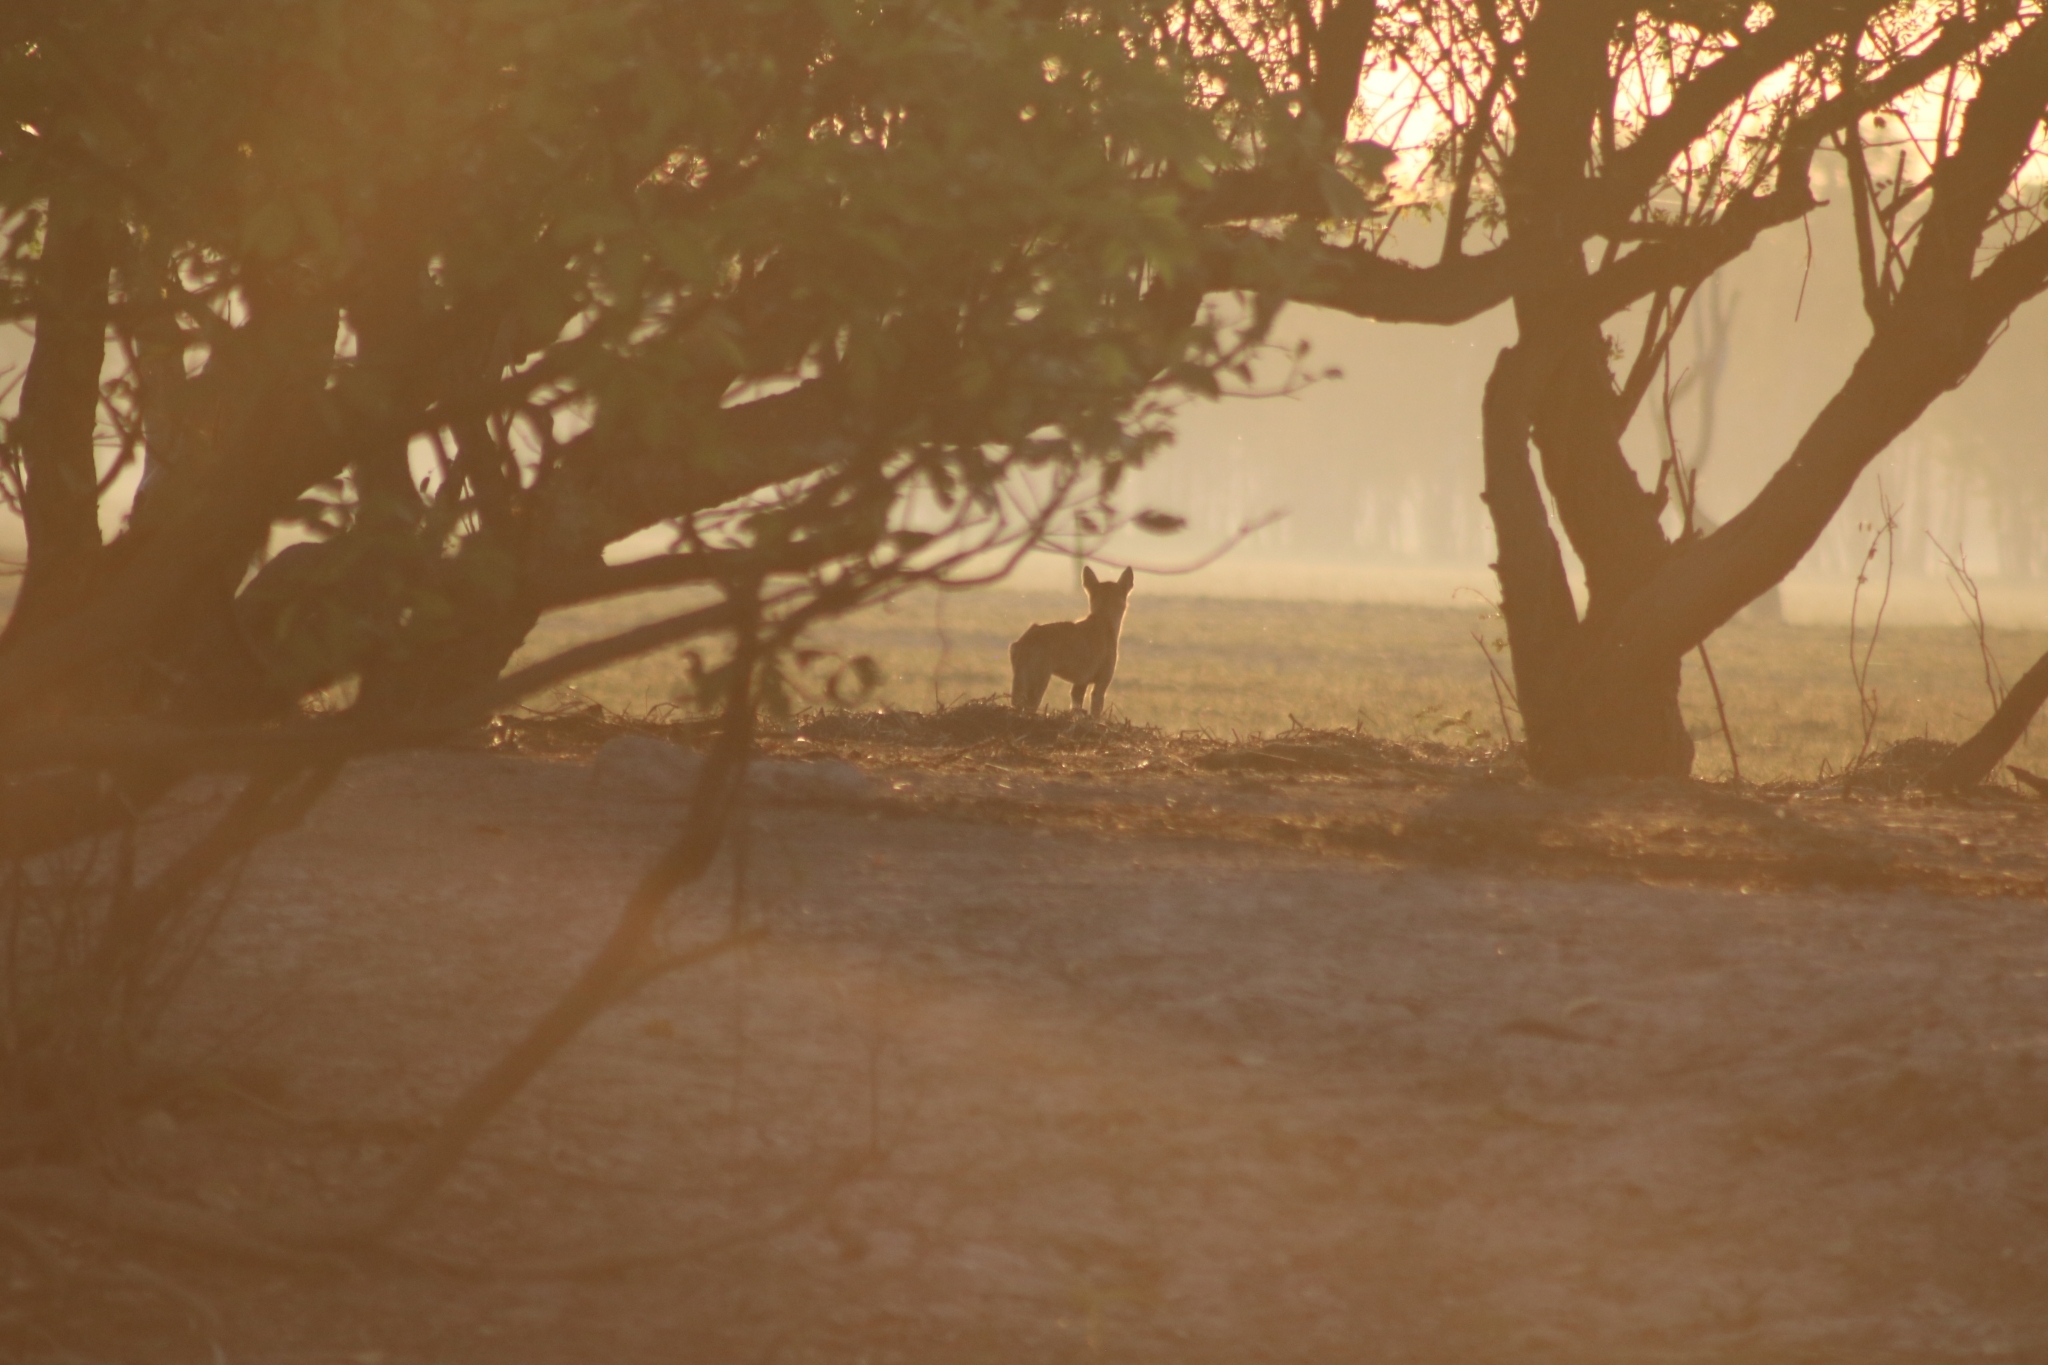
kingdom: Animalia
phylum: Chordata
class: Mammalia
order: Carnivora
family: Canidae
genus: Canis
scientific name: Canis lupus
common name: Gray wolf
